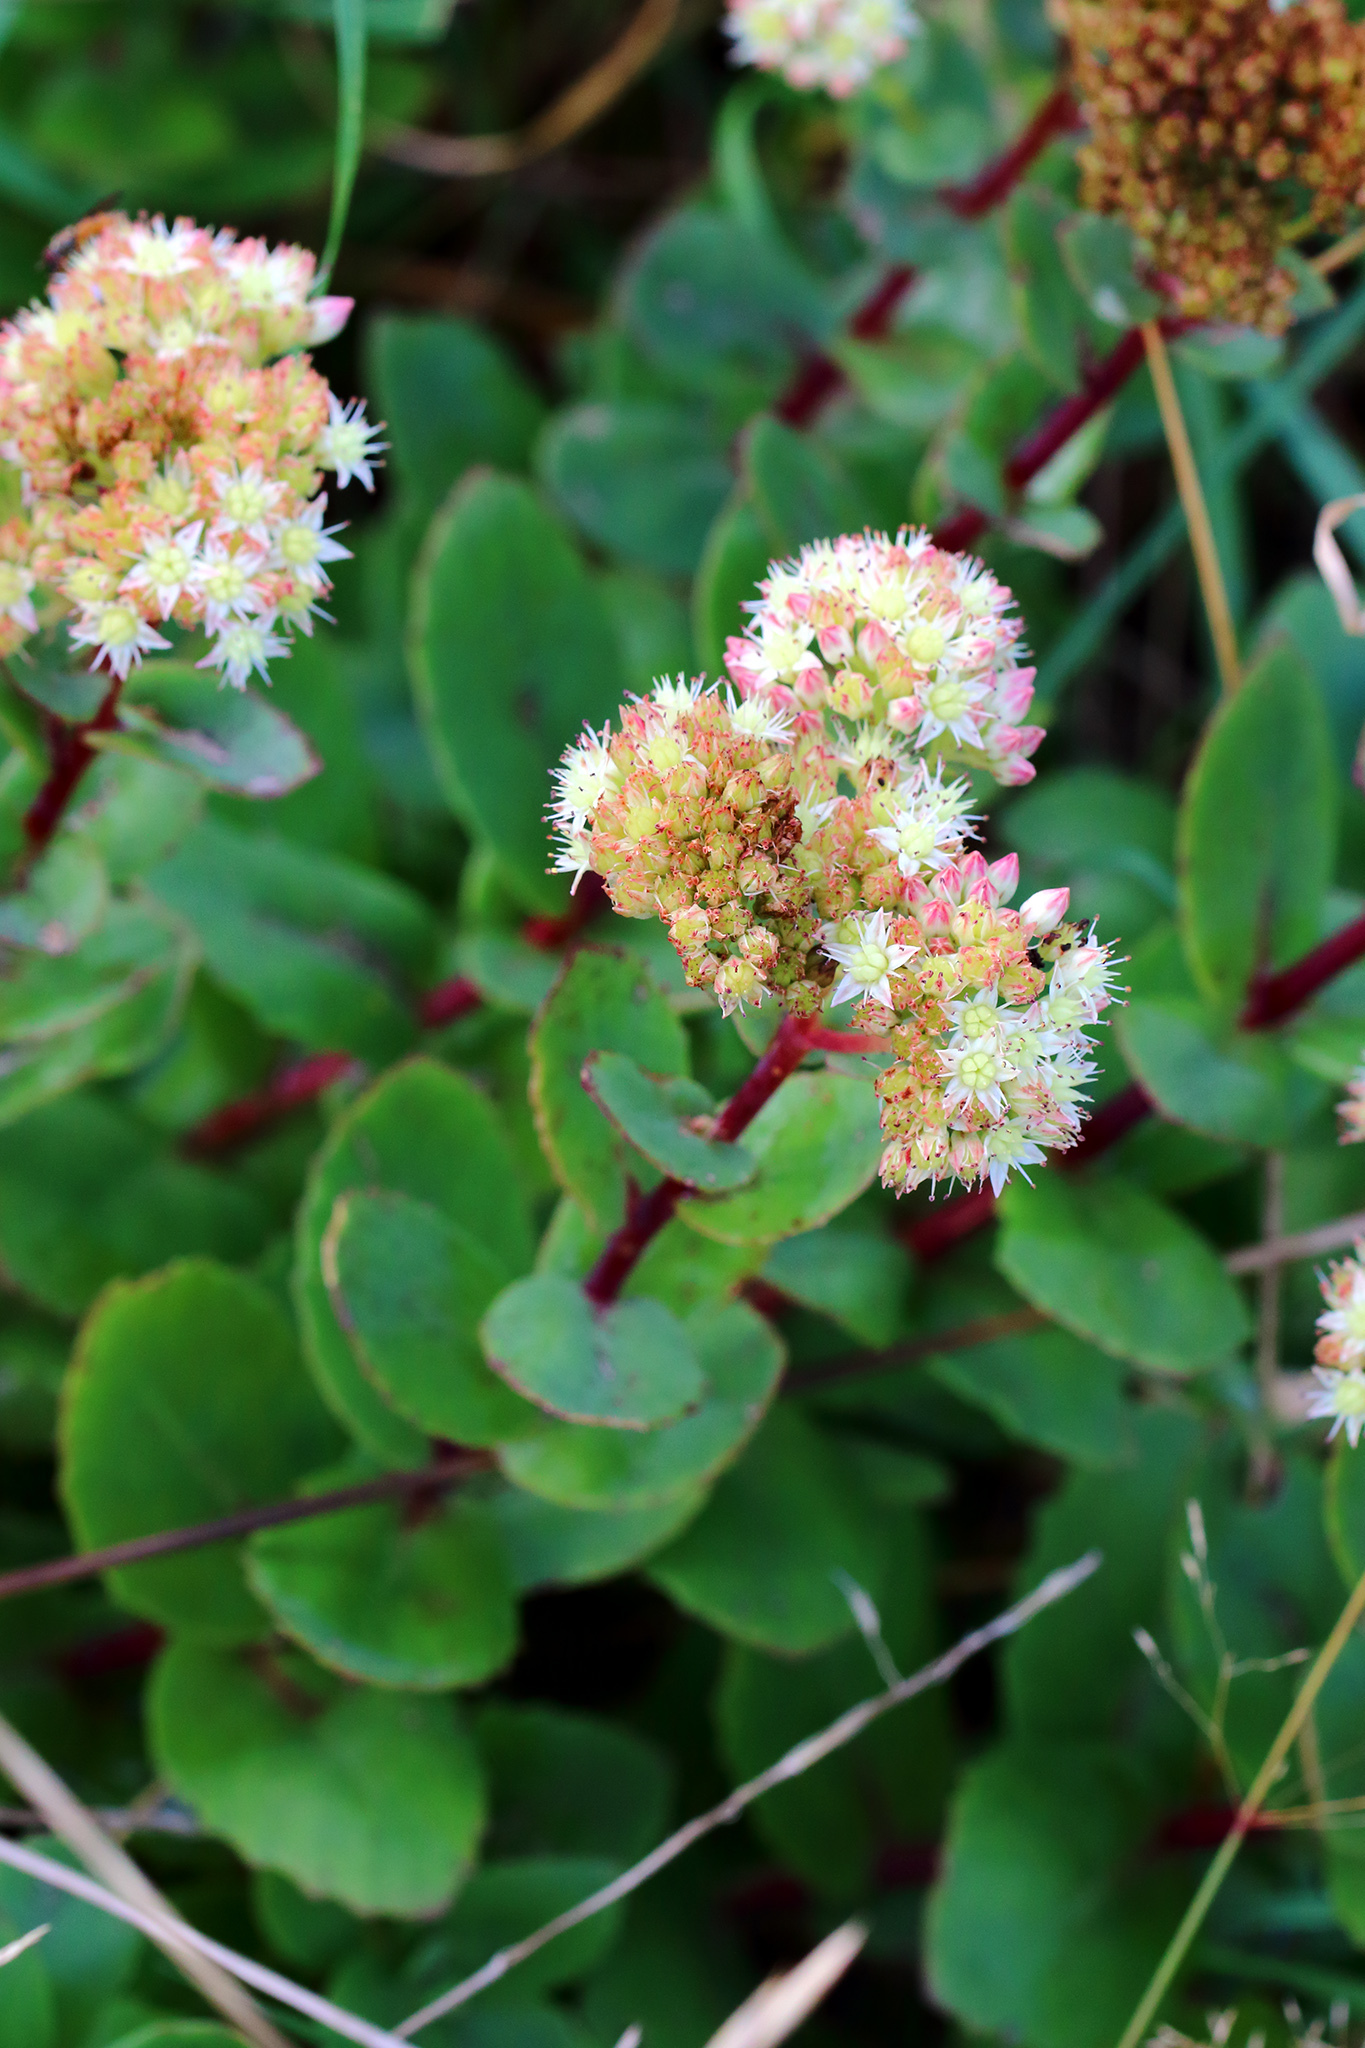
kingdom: Plantae
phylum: Tracheophyta
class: Magnoliopsida
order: Saxifragales
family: Crassulaceae
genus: Hylotelephium
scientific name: Hylotelephium maximum
